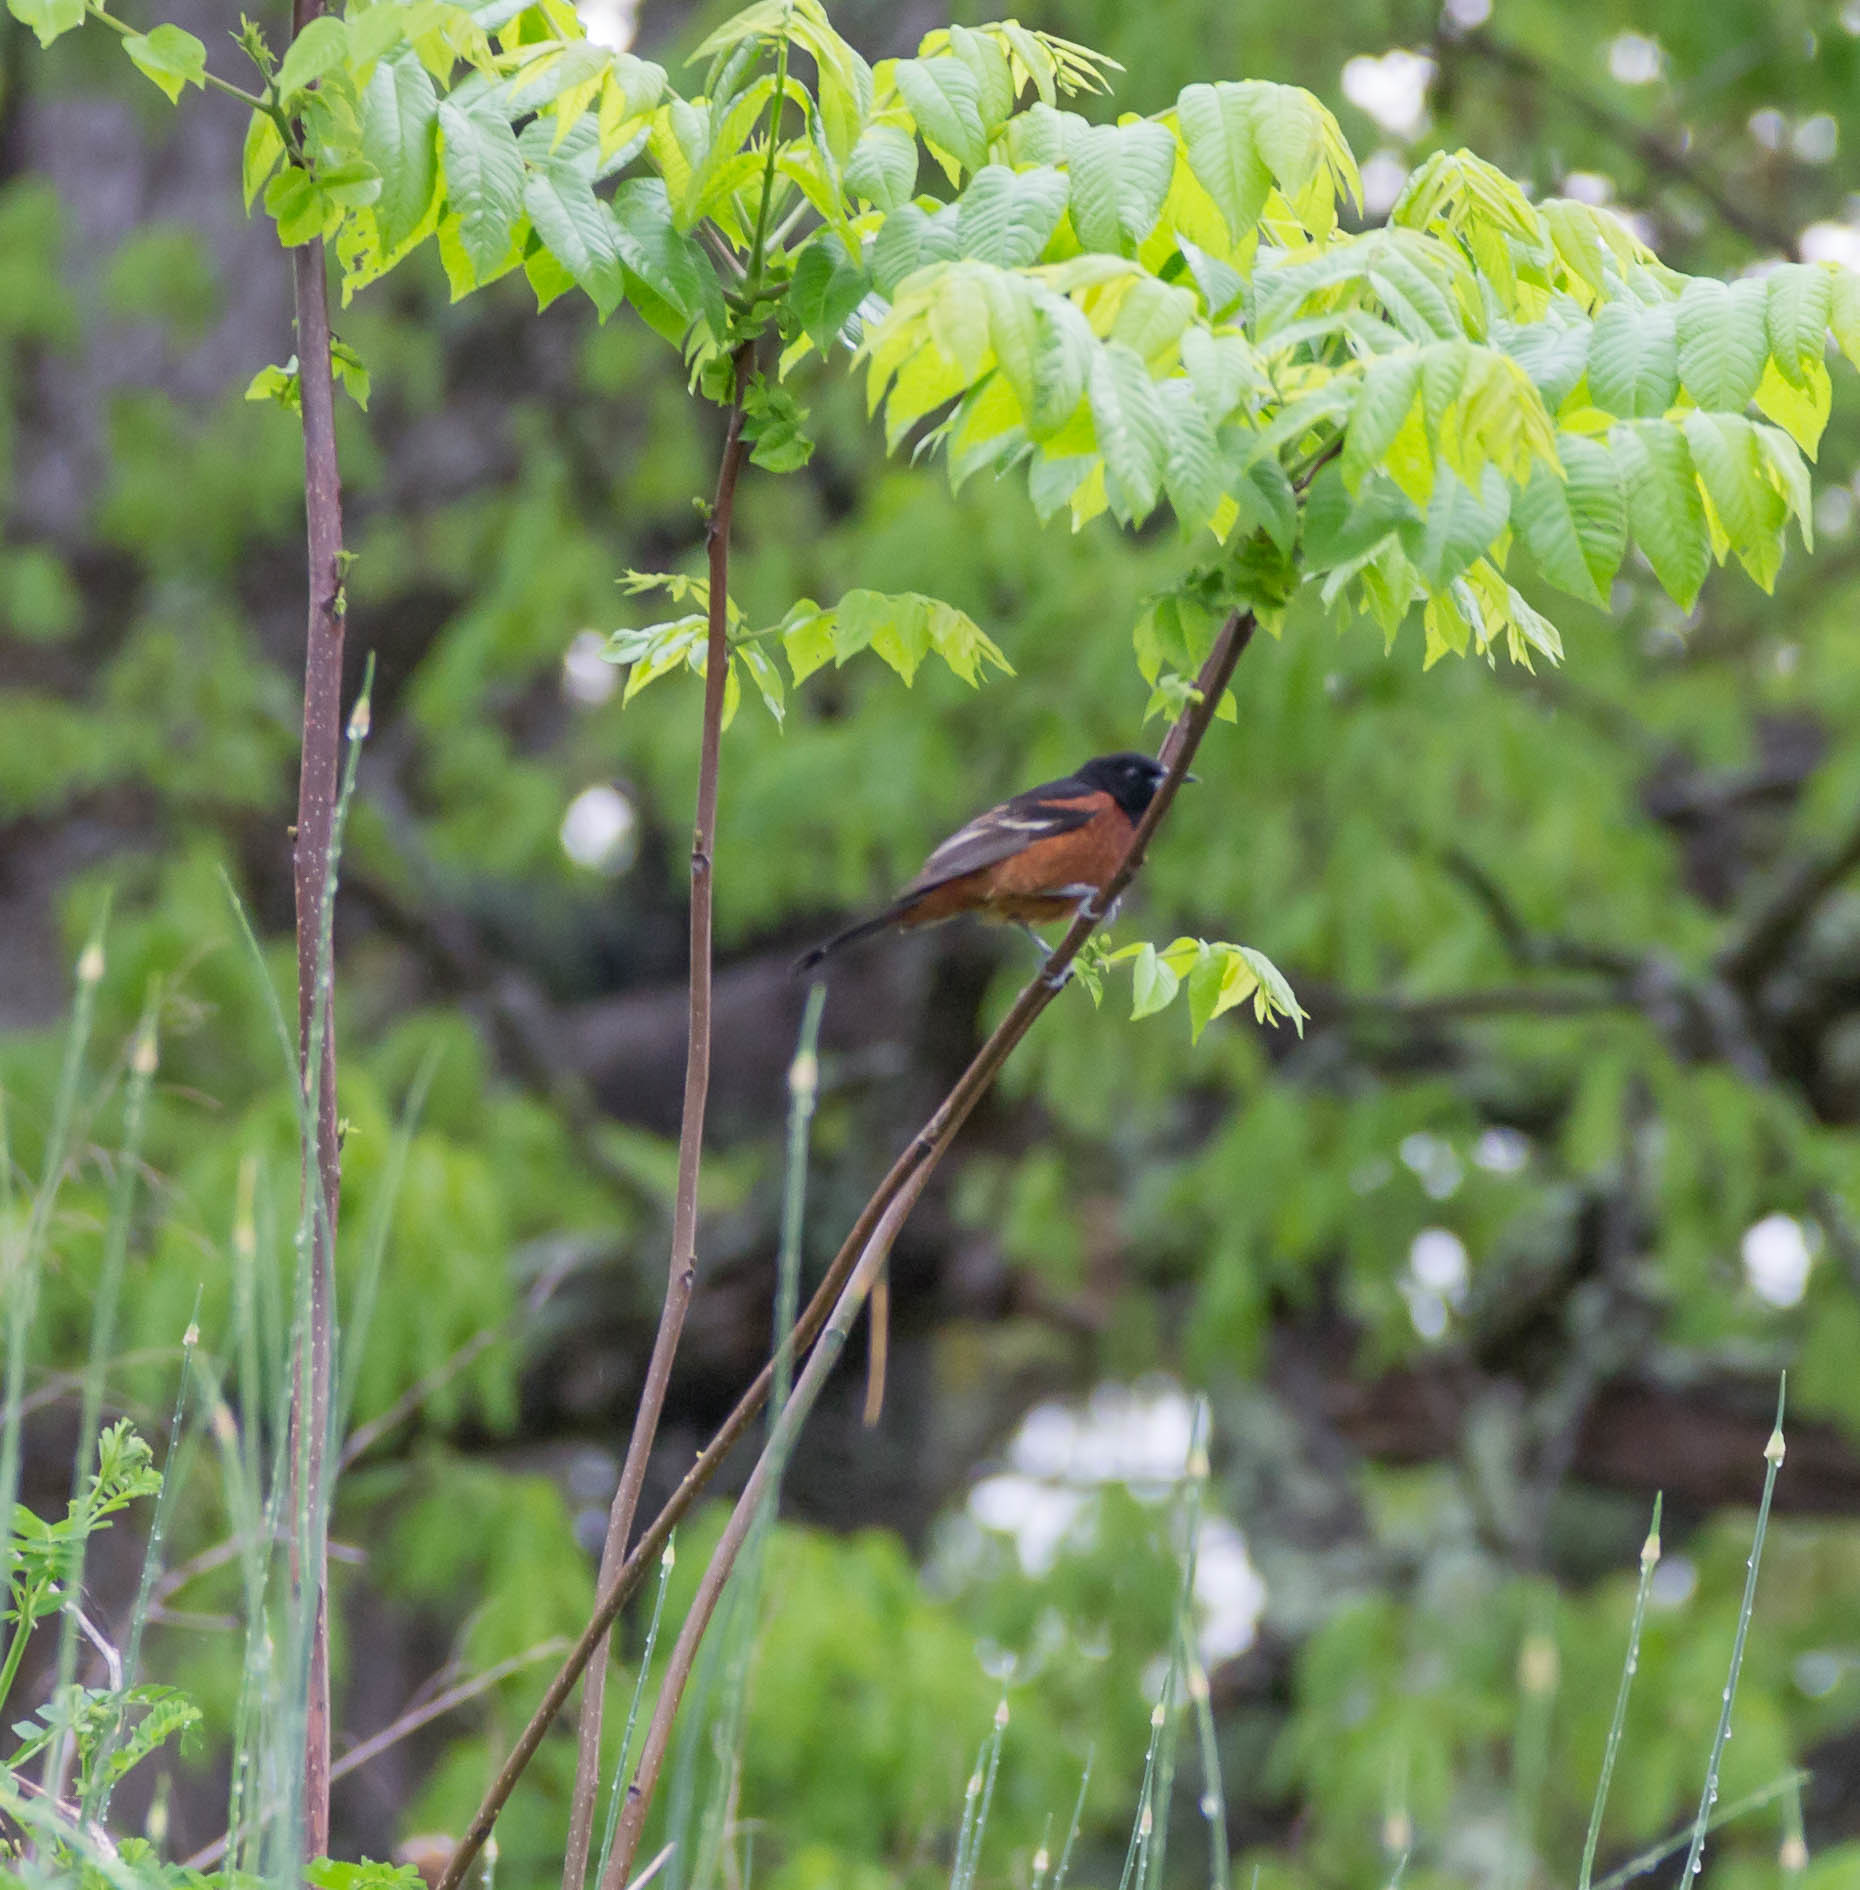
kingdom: Animalia
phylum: Chordata
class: Aves
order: Passeriformes
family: Icteridae
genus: Icterus
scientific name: Icterus spurius
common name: Orchard oriole
